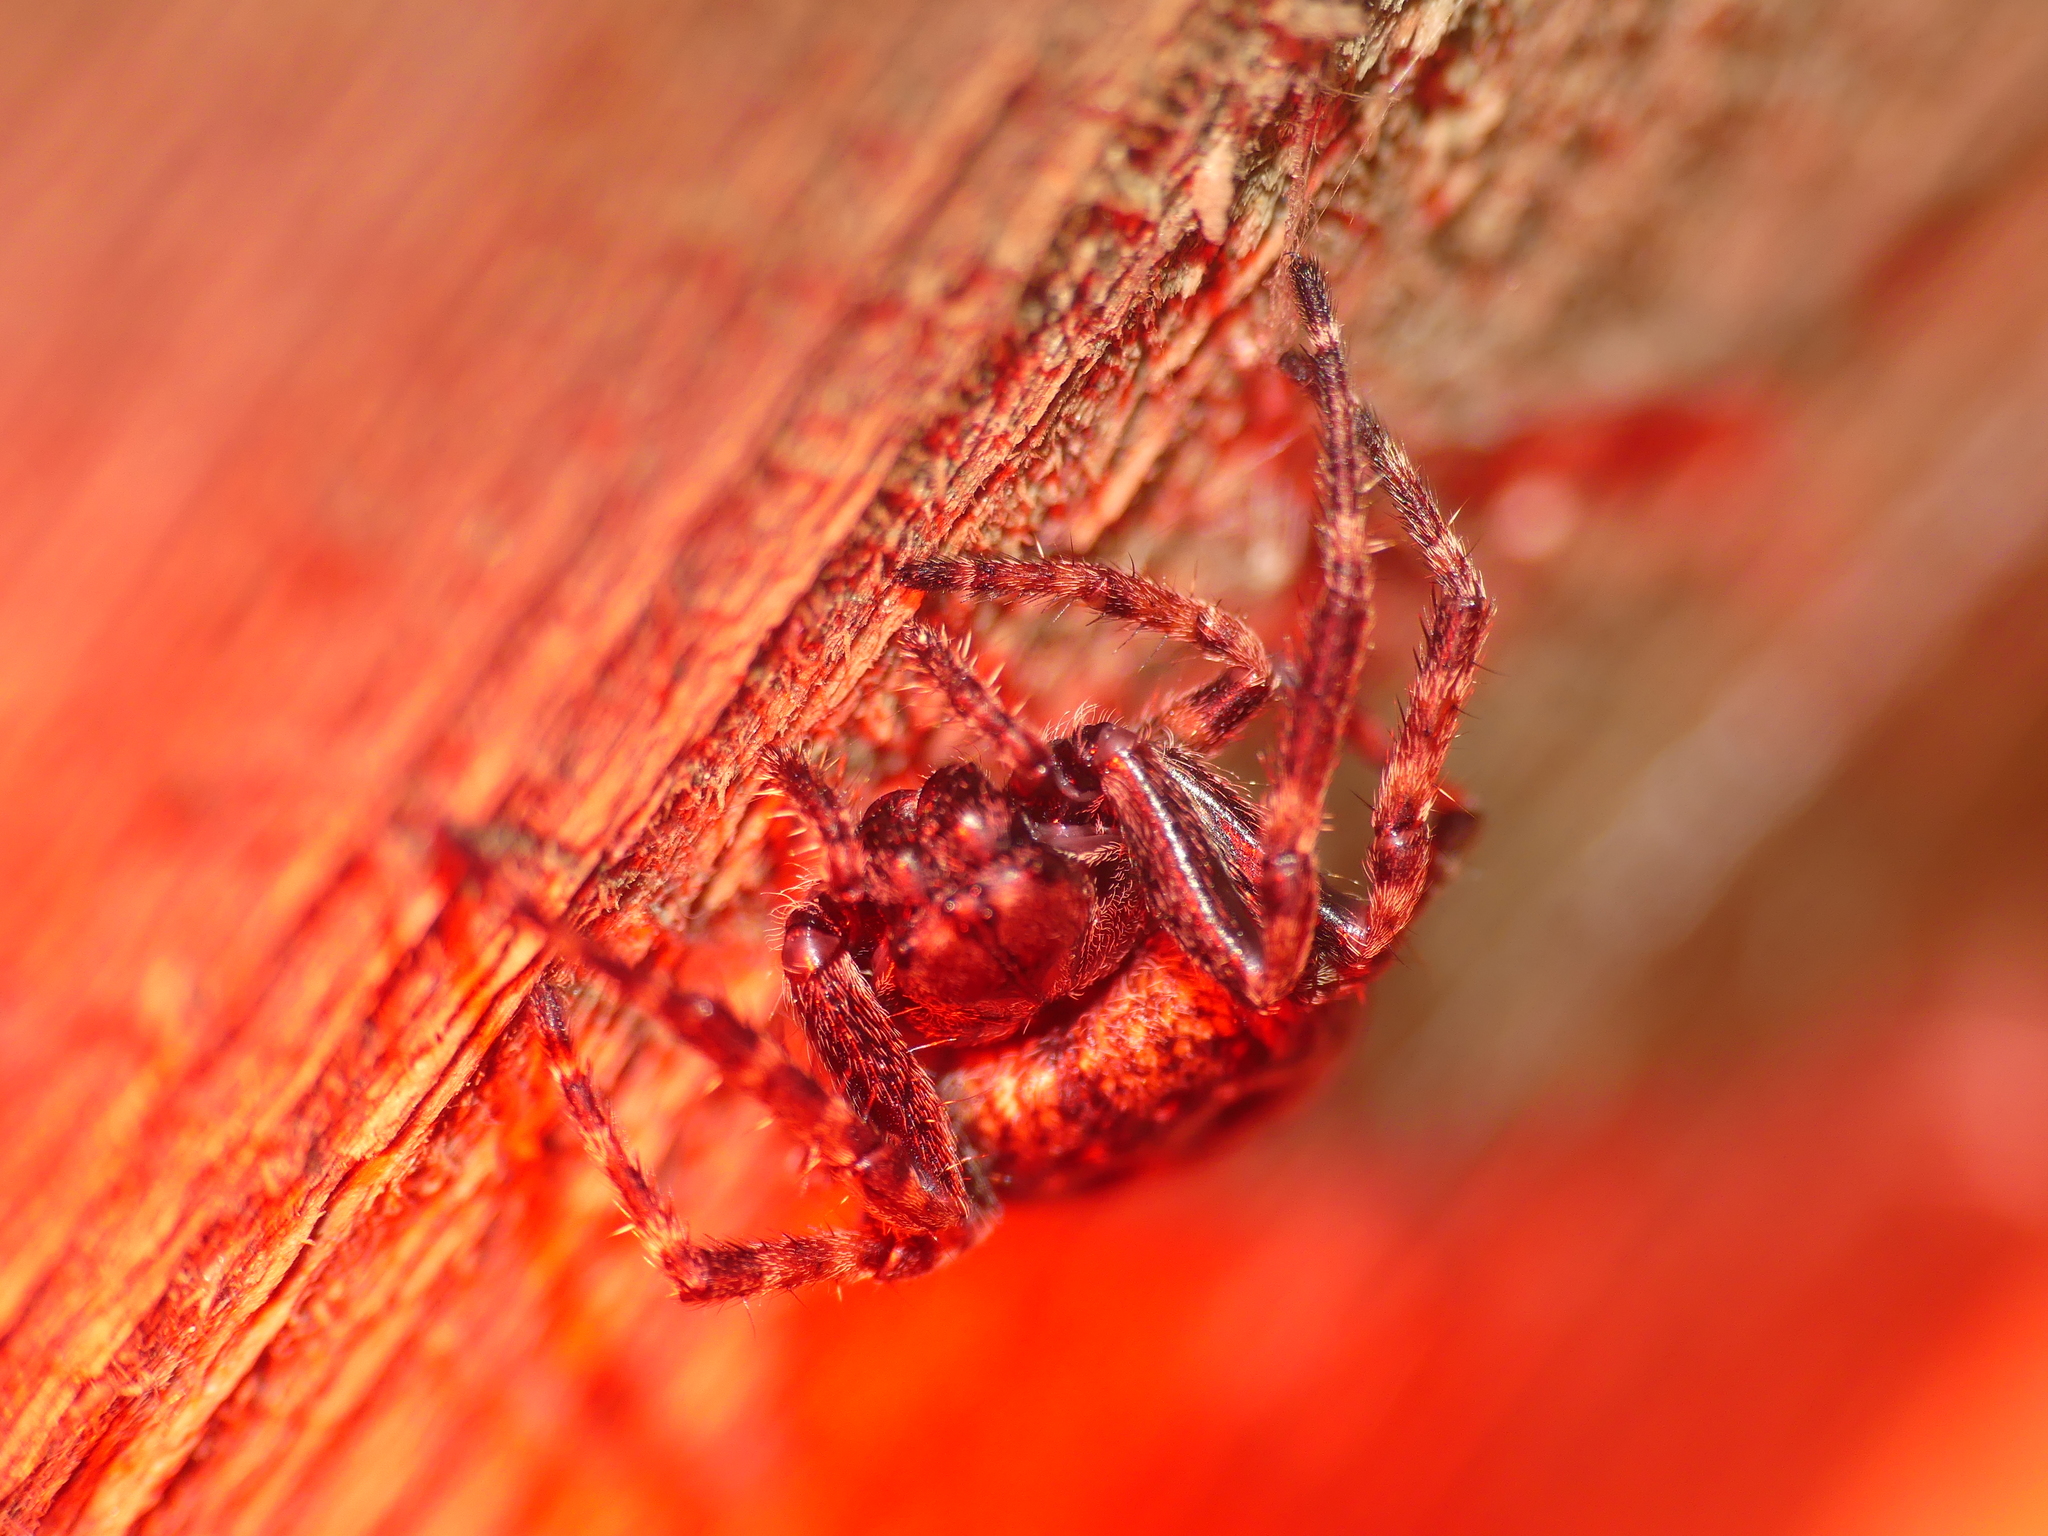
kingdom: Animalia
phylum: Arthropoda
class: Arachnida
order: Araneae
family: Araneidae
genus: Nuctenea
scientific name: Nuctenea umbratica
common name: Toad spider
